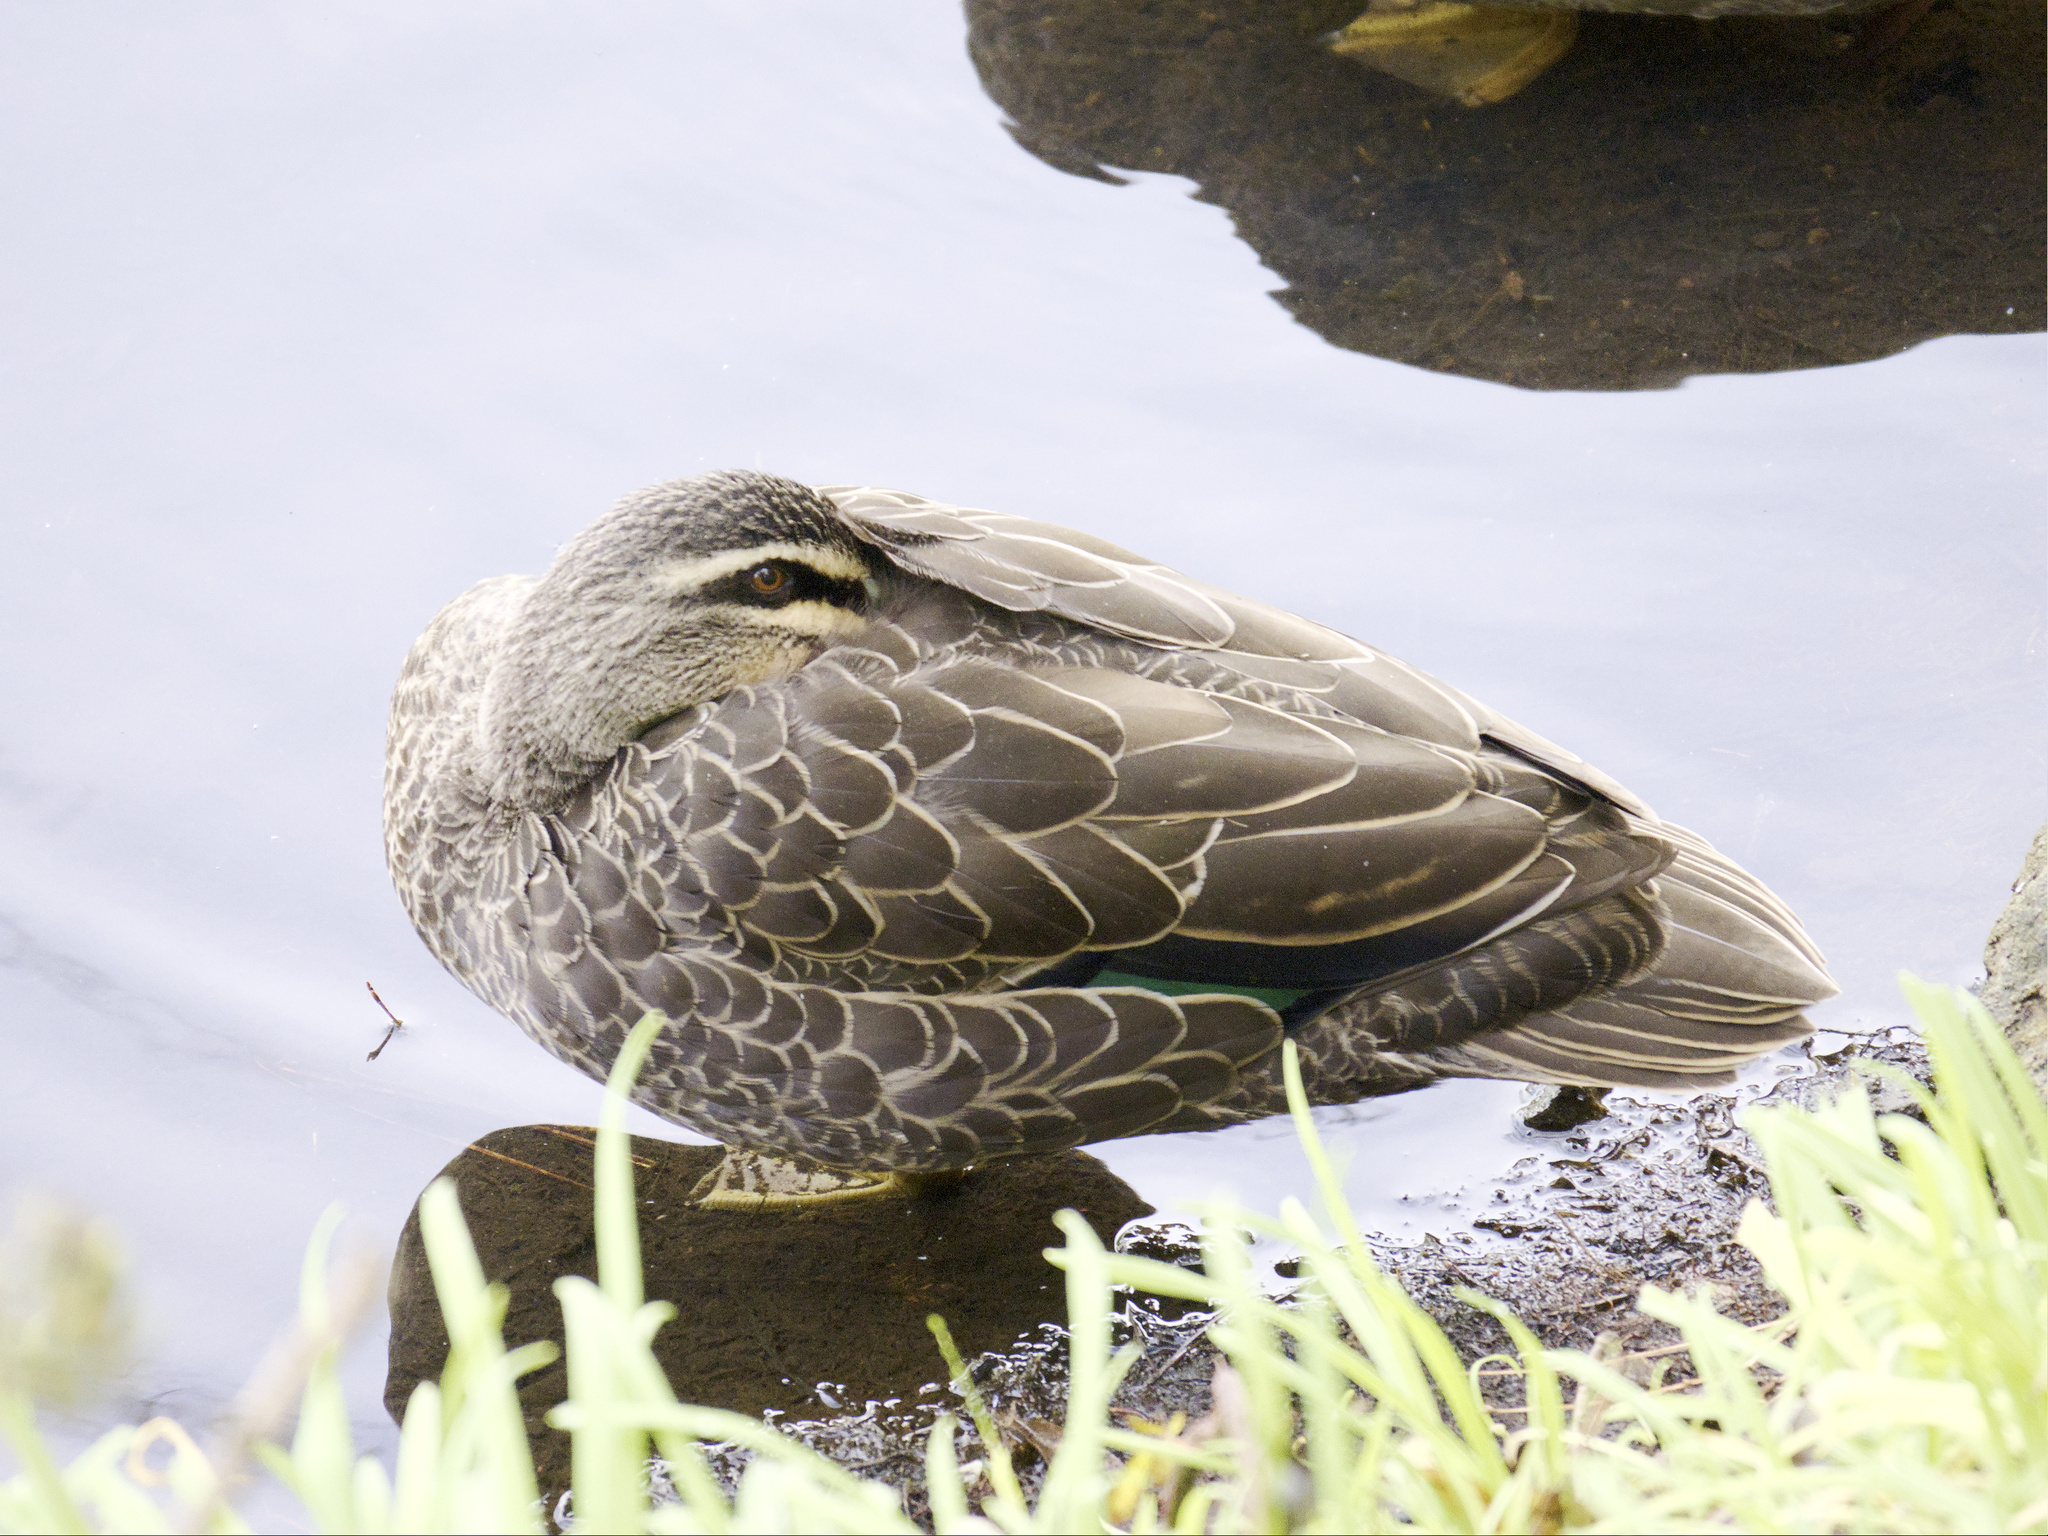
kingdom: Animalia
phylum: Chordata
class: Aves
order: Anseriformes
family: Anatidae
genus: Anas
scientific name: Anas superciliosa
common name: Pacific black duck
